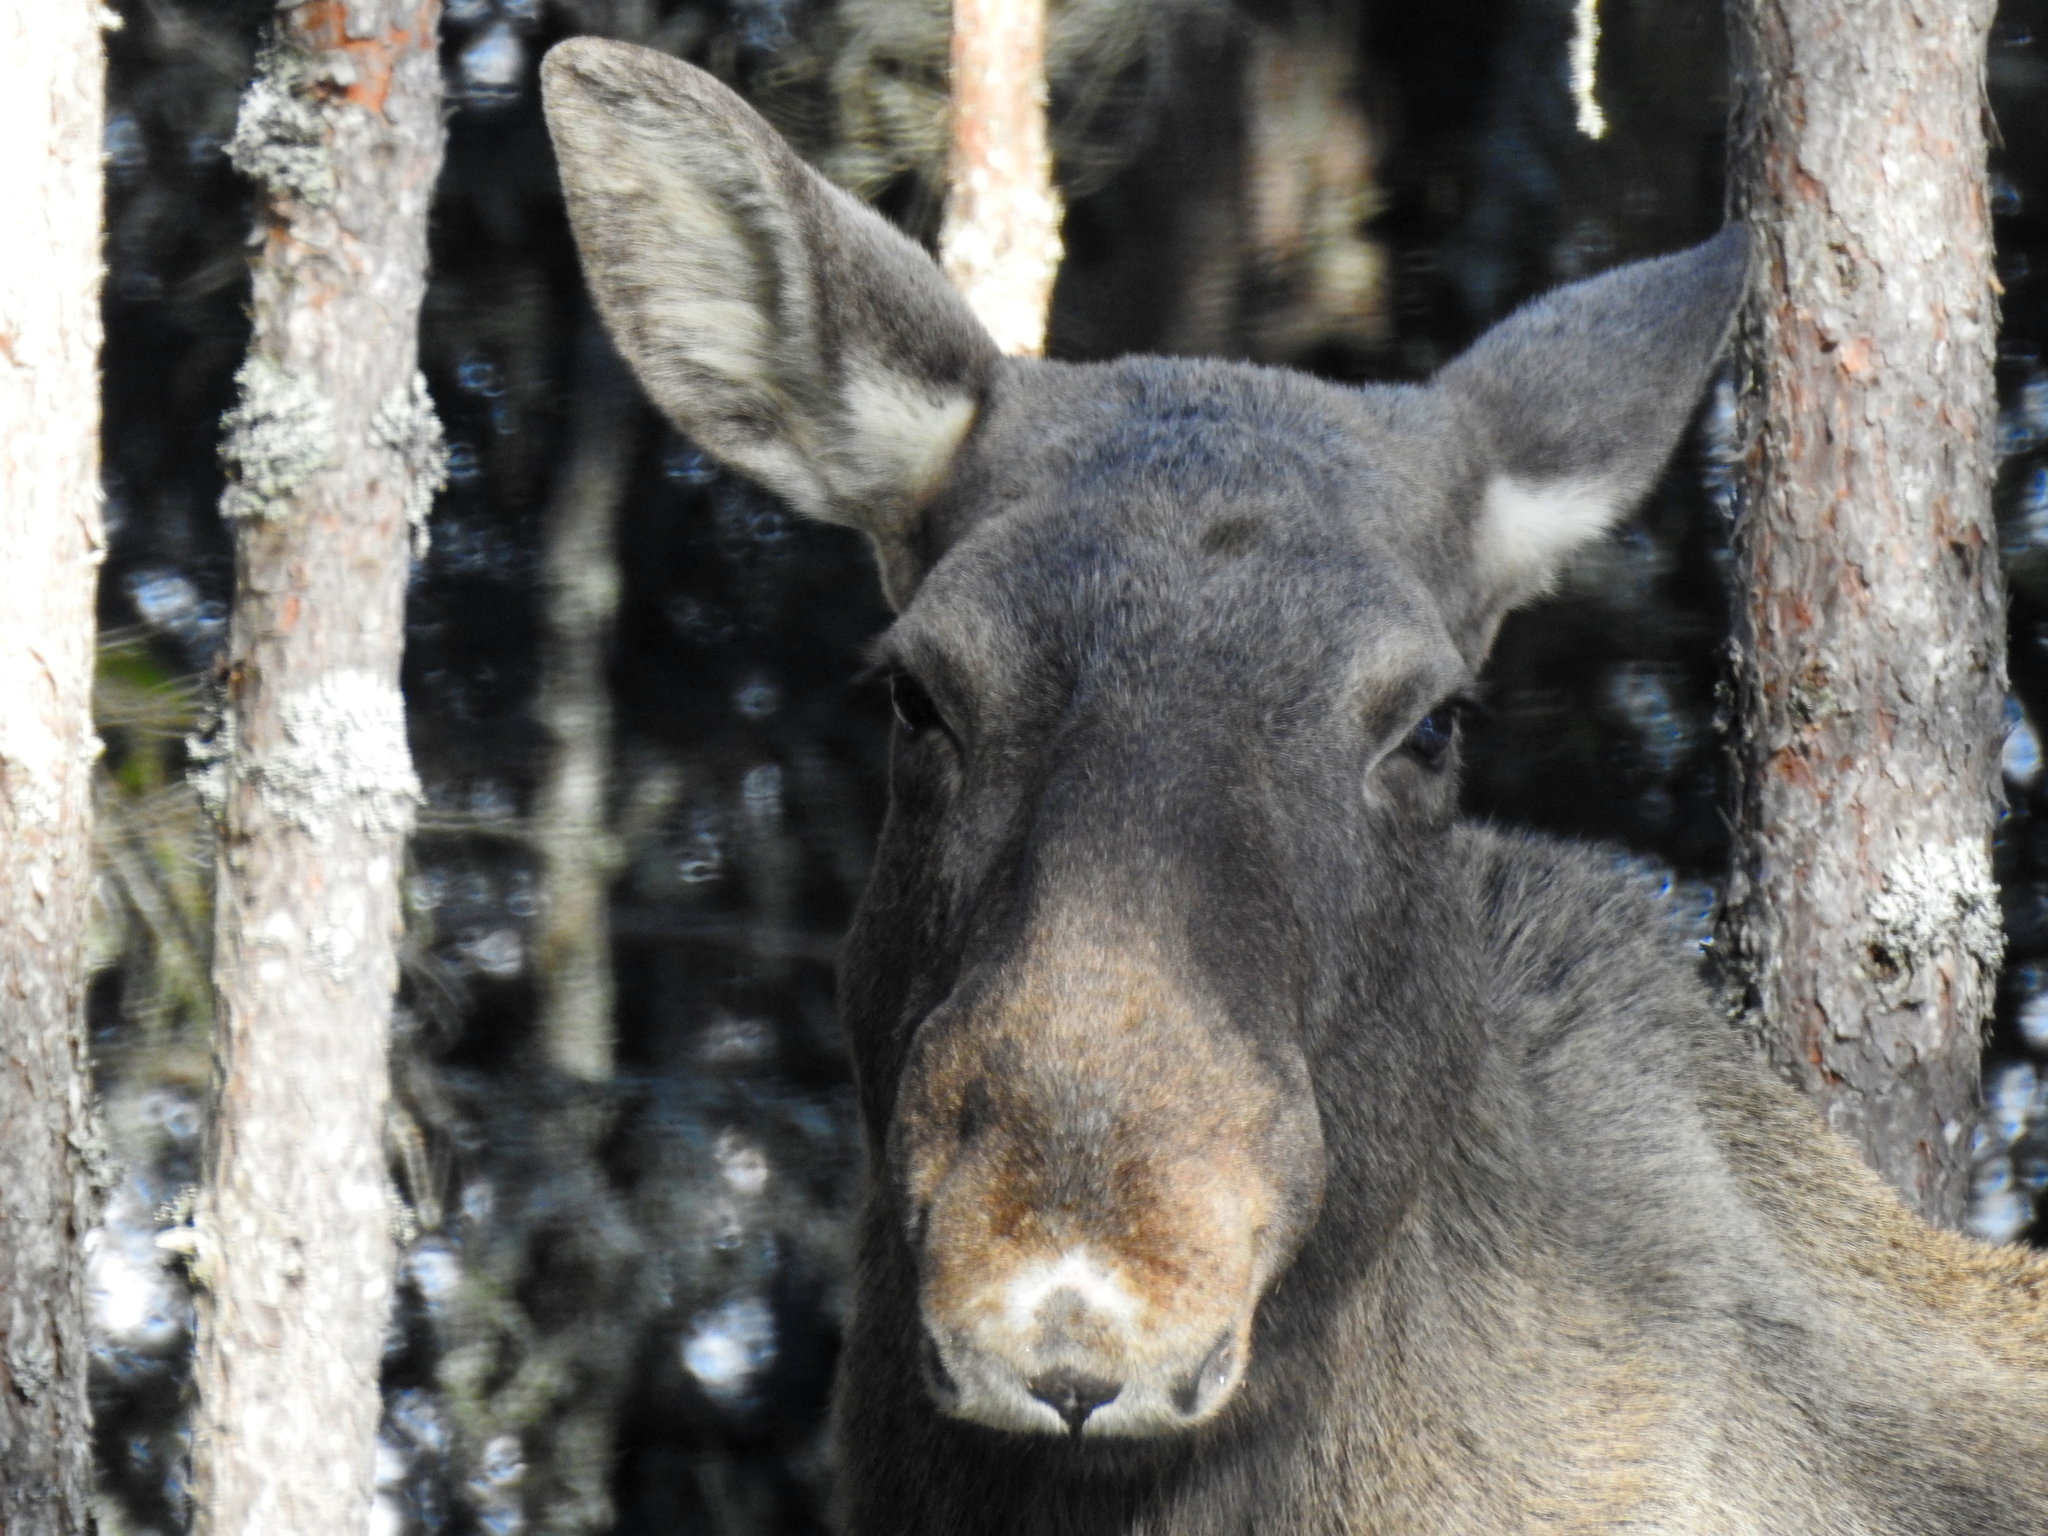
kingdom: Animalia
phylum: Chordata
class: Mammalia
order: Artiodactyla
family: Cervidae
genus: Alces
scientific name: Alces alces
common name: Moose
